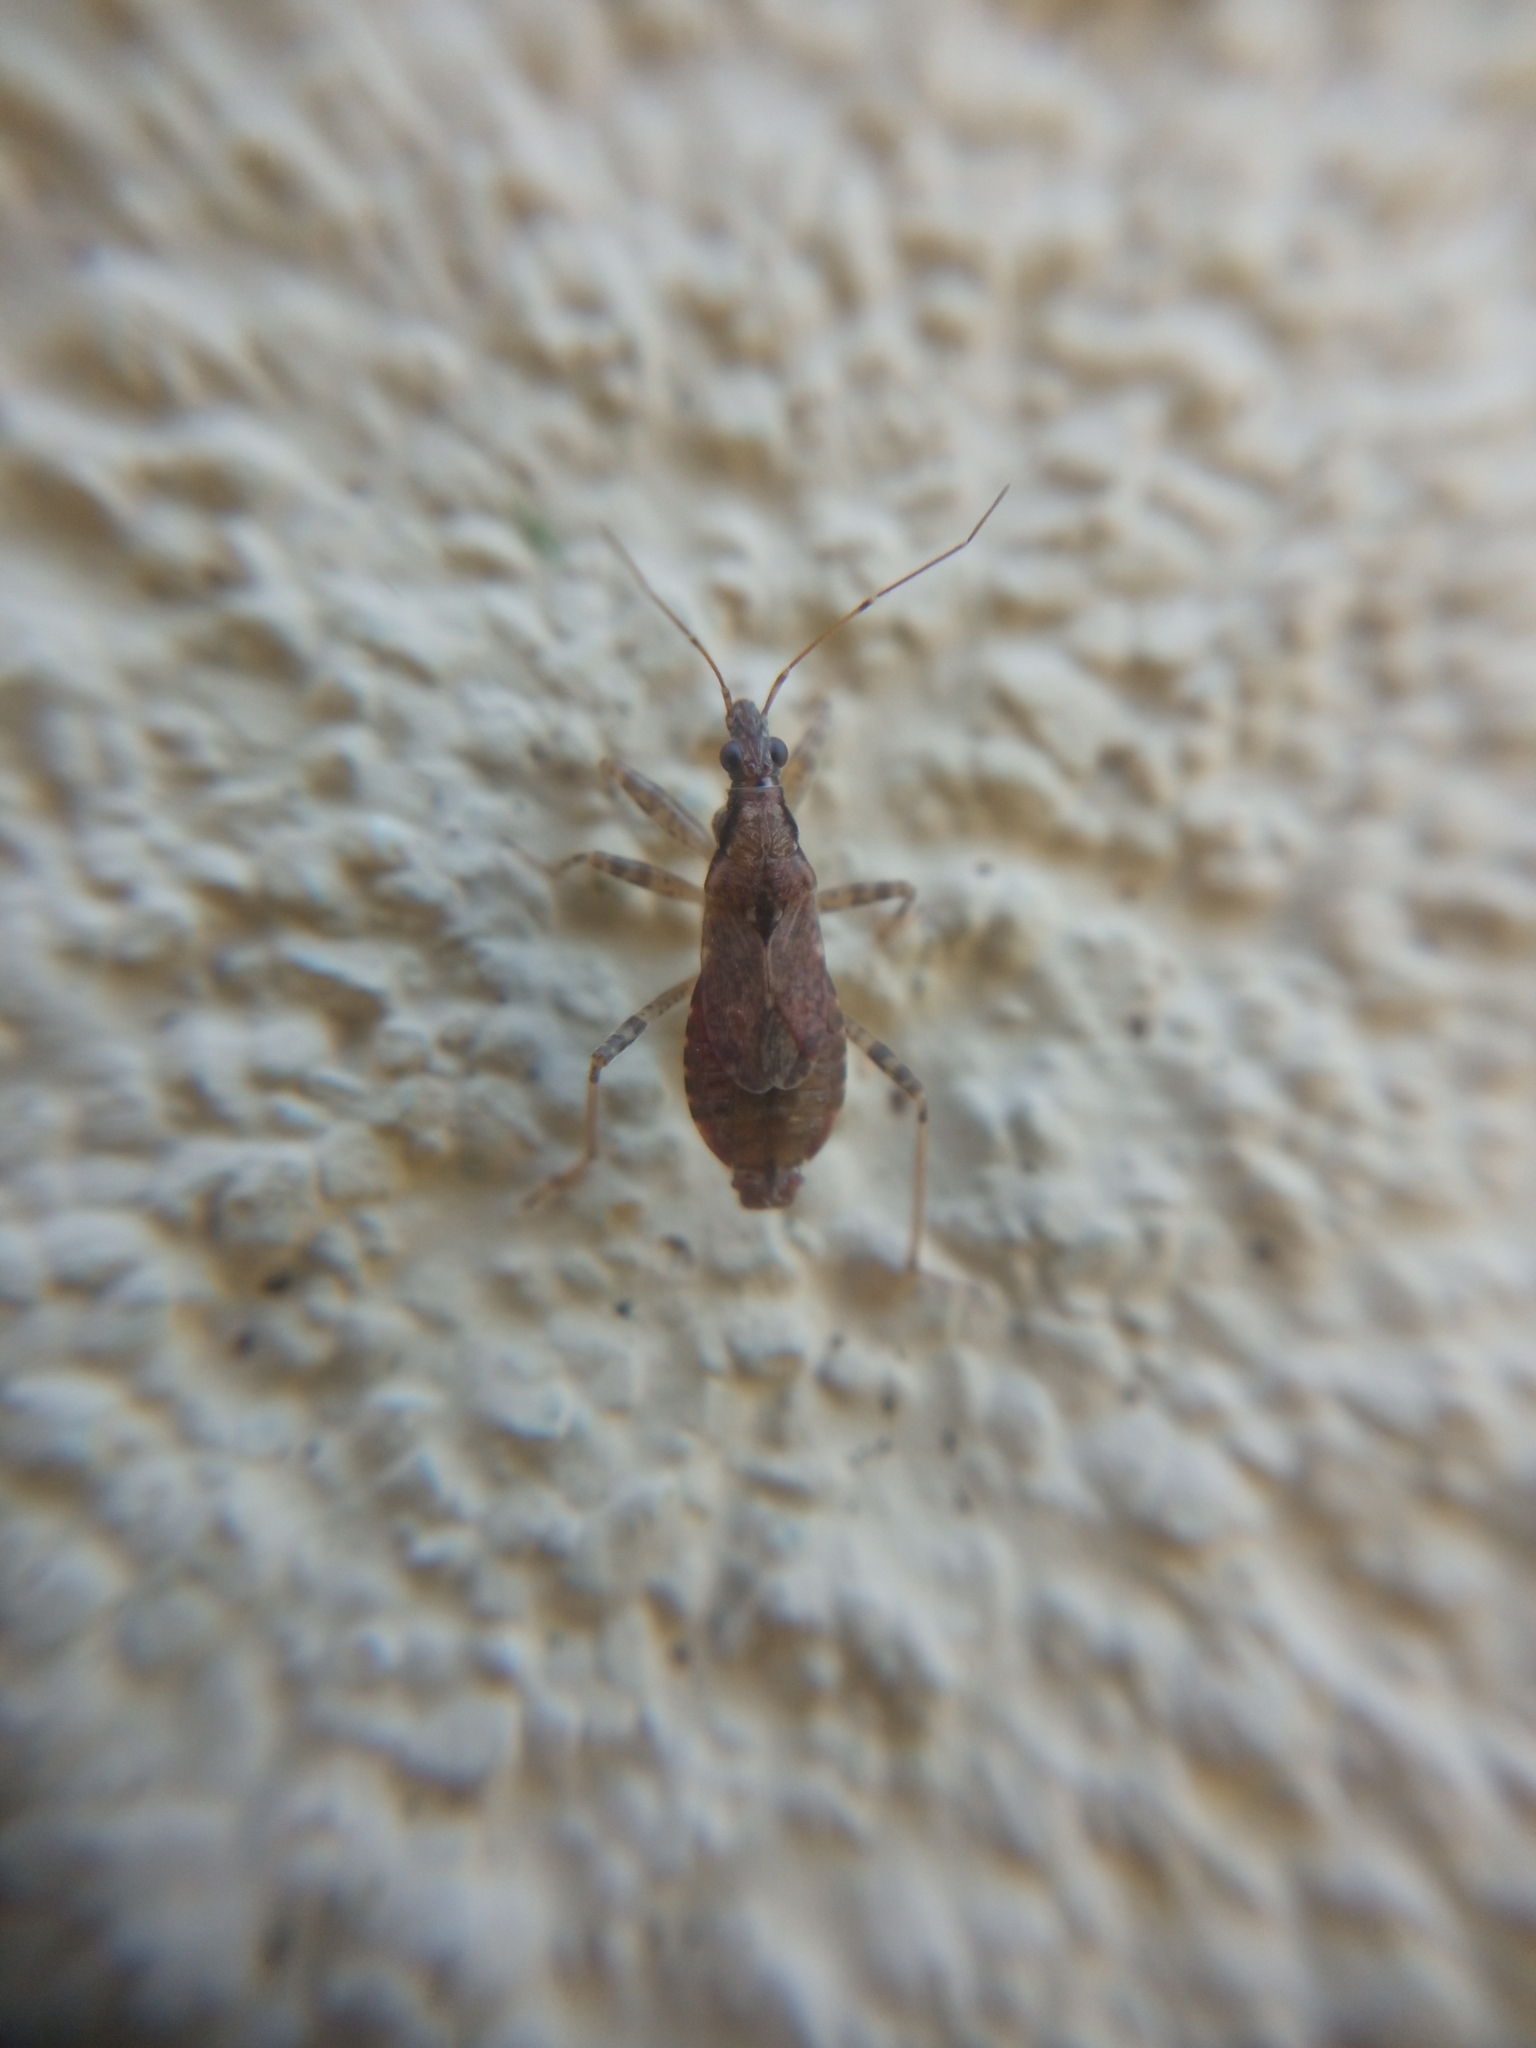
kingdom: Animalia
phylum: Arthropoda
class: Insecta
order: Hemiptera
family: Nabidae
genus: Himacerus
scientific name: Himacerus mirmicoides
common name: Ant damsel bug
